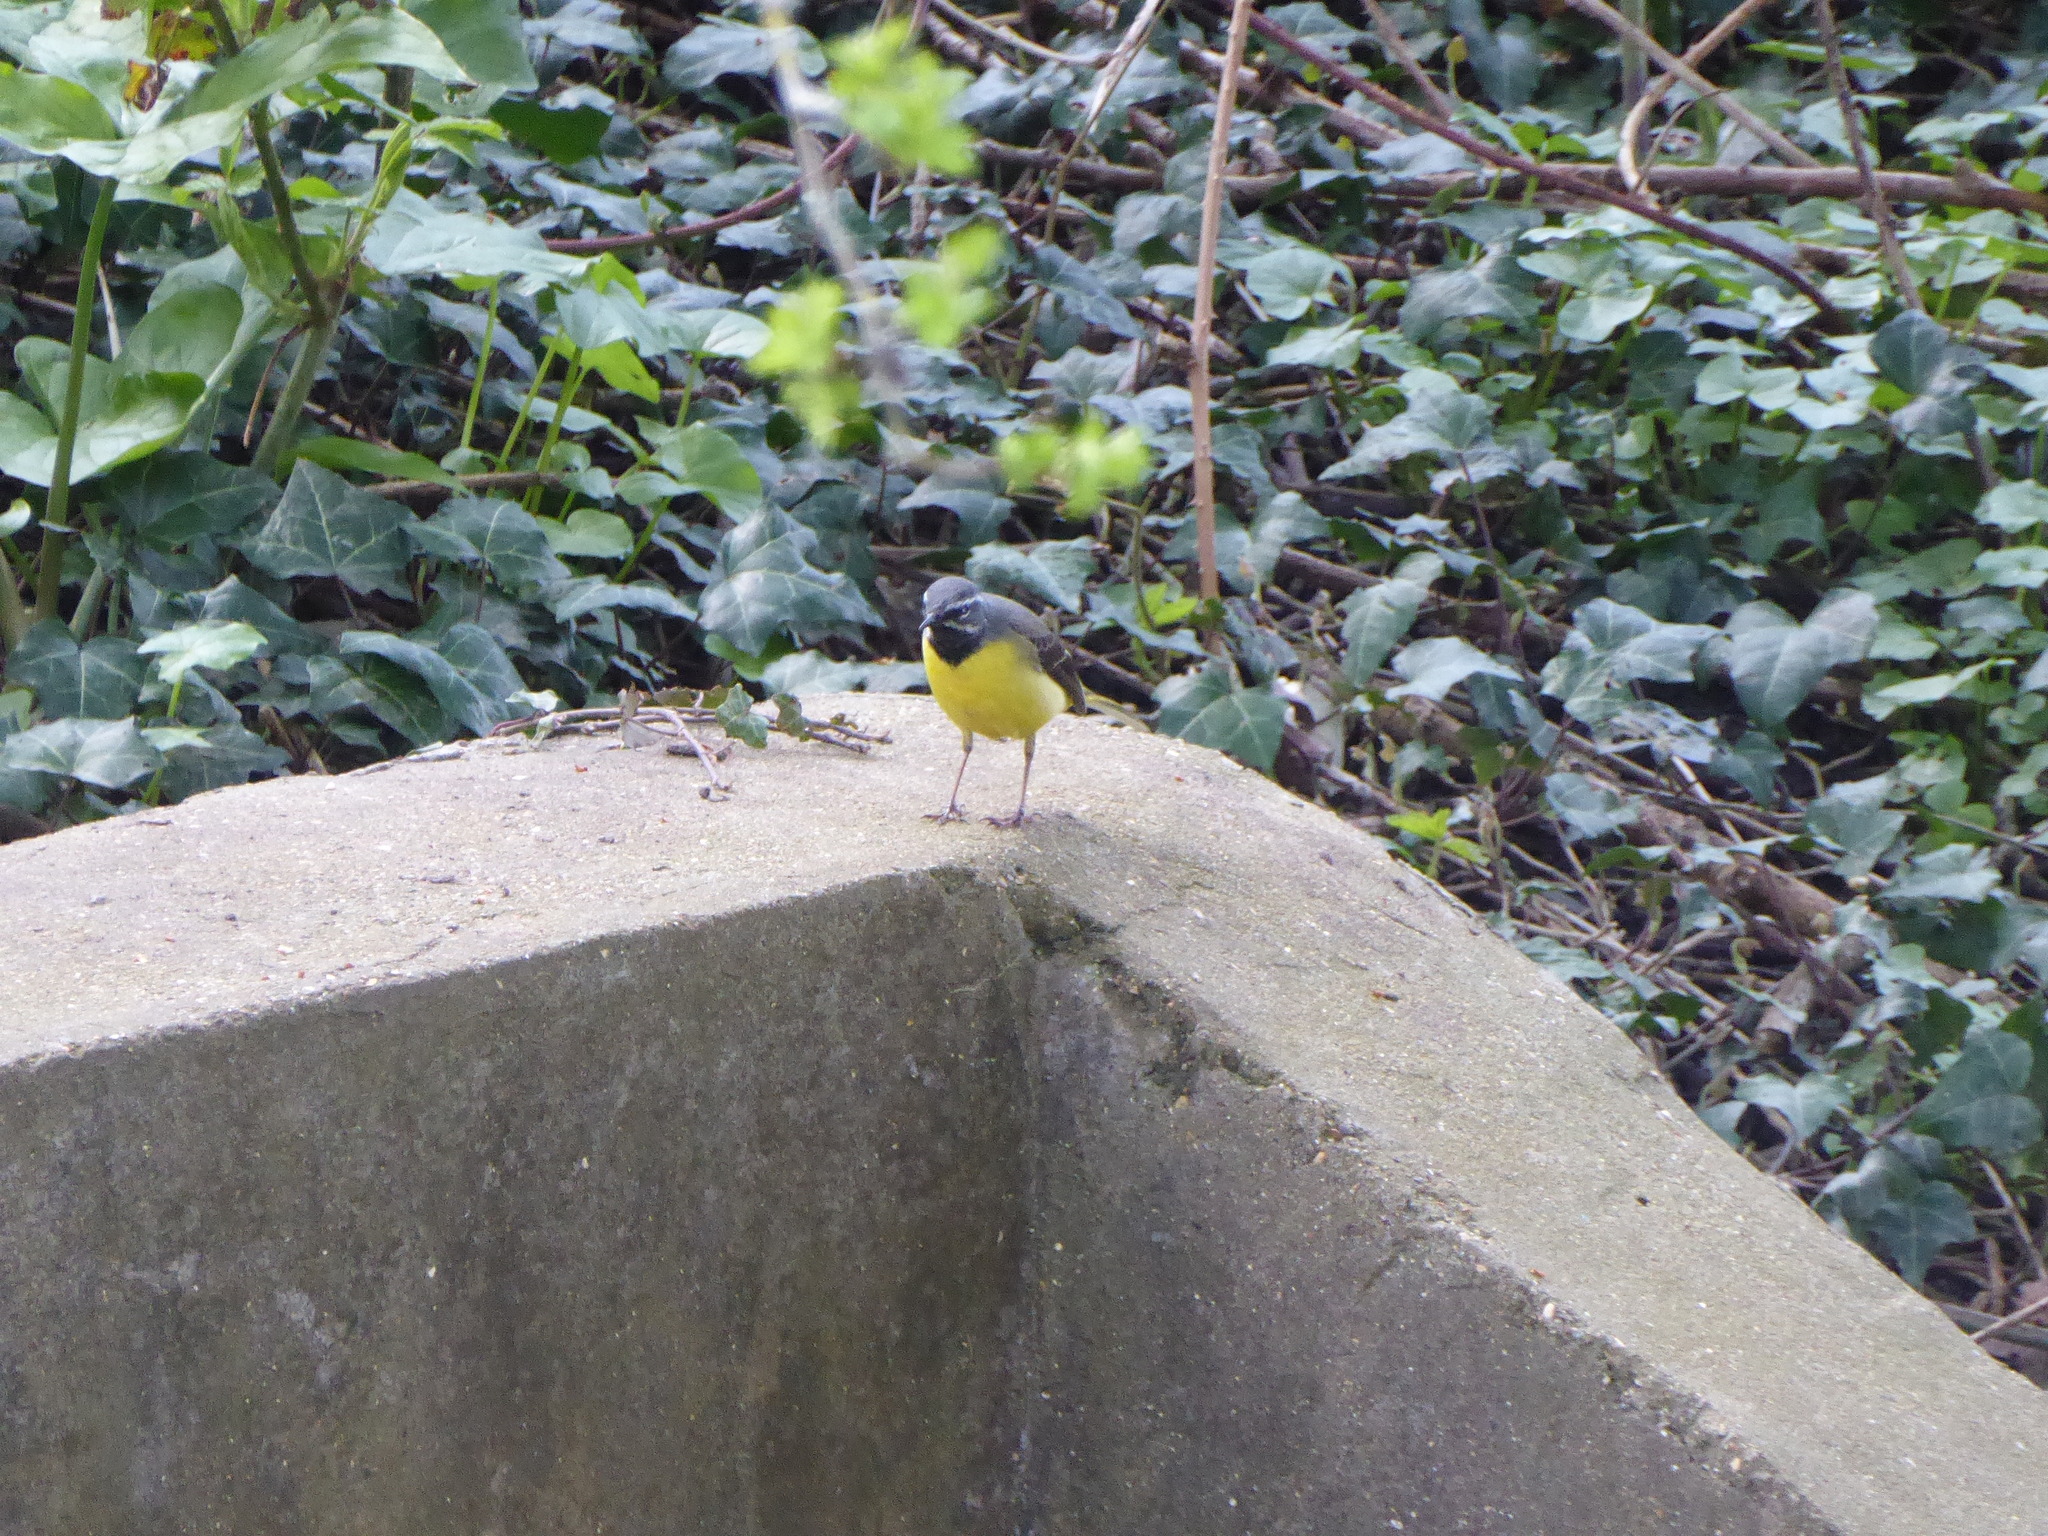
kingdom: Animalia
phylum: Chordata
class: Aves
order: Passeriformes
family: Motacillidae
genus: Motacilla
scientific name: Motacilla cinerea
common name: Grey wagtail
